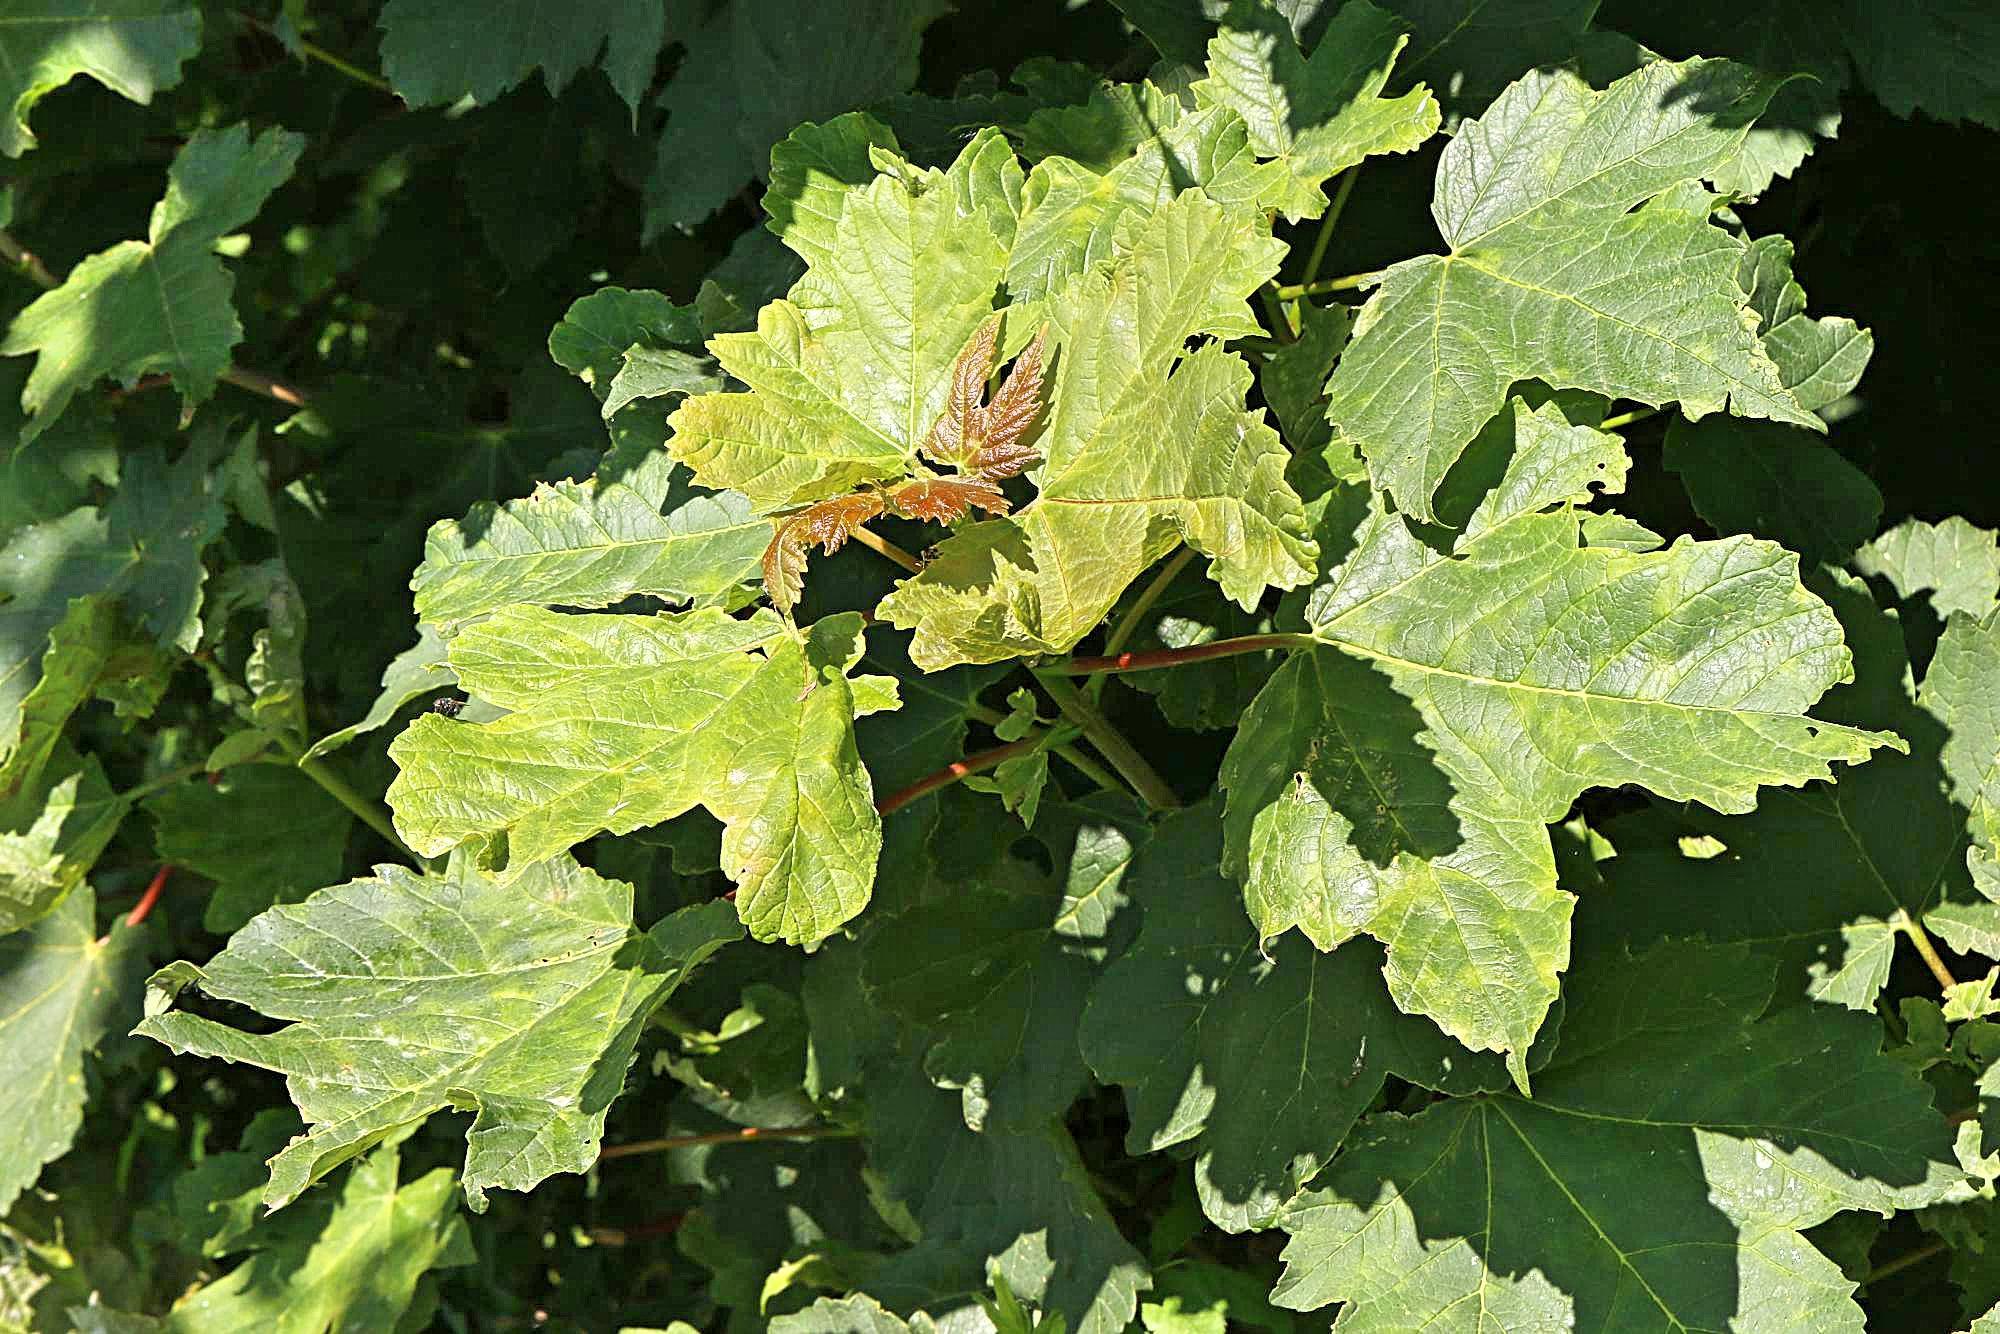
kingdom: Plantae
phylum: Tracheophyta
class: Magnoliopsida
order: Sapindales
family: Sapindaceae
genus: Acer
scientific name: Acer pseudoplatanus
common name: Sycamore
